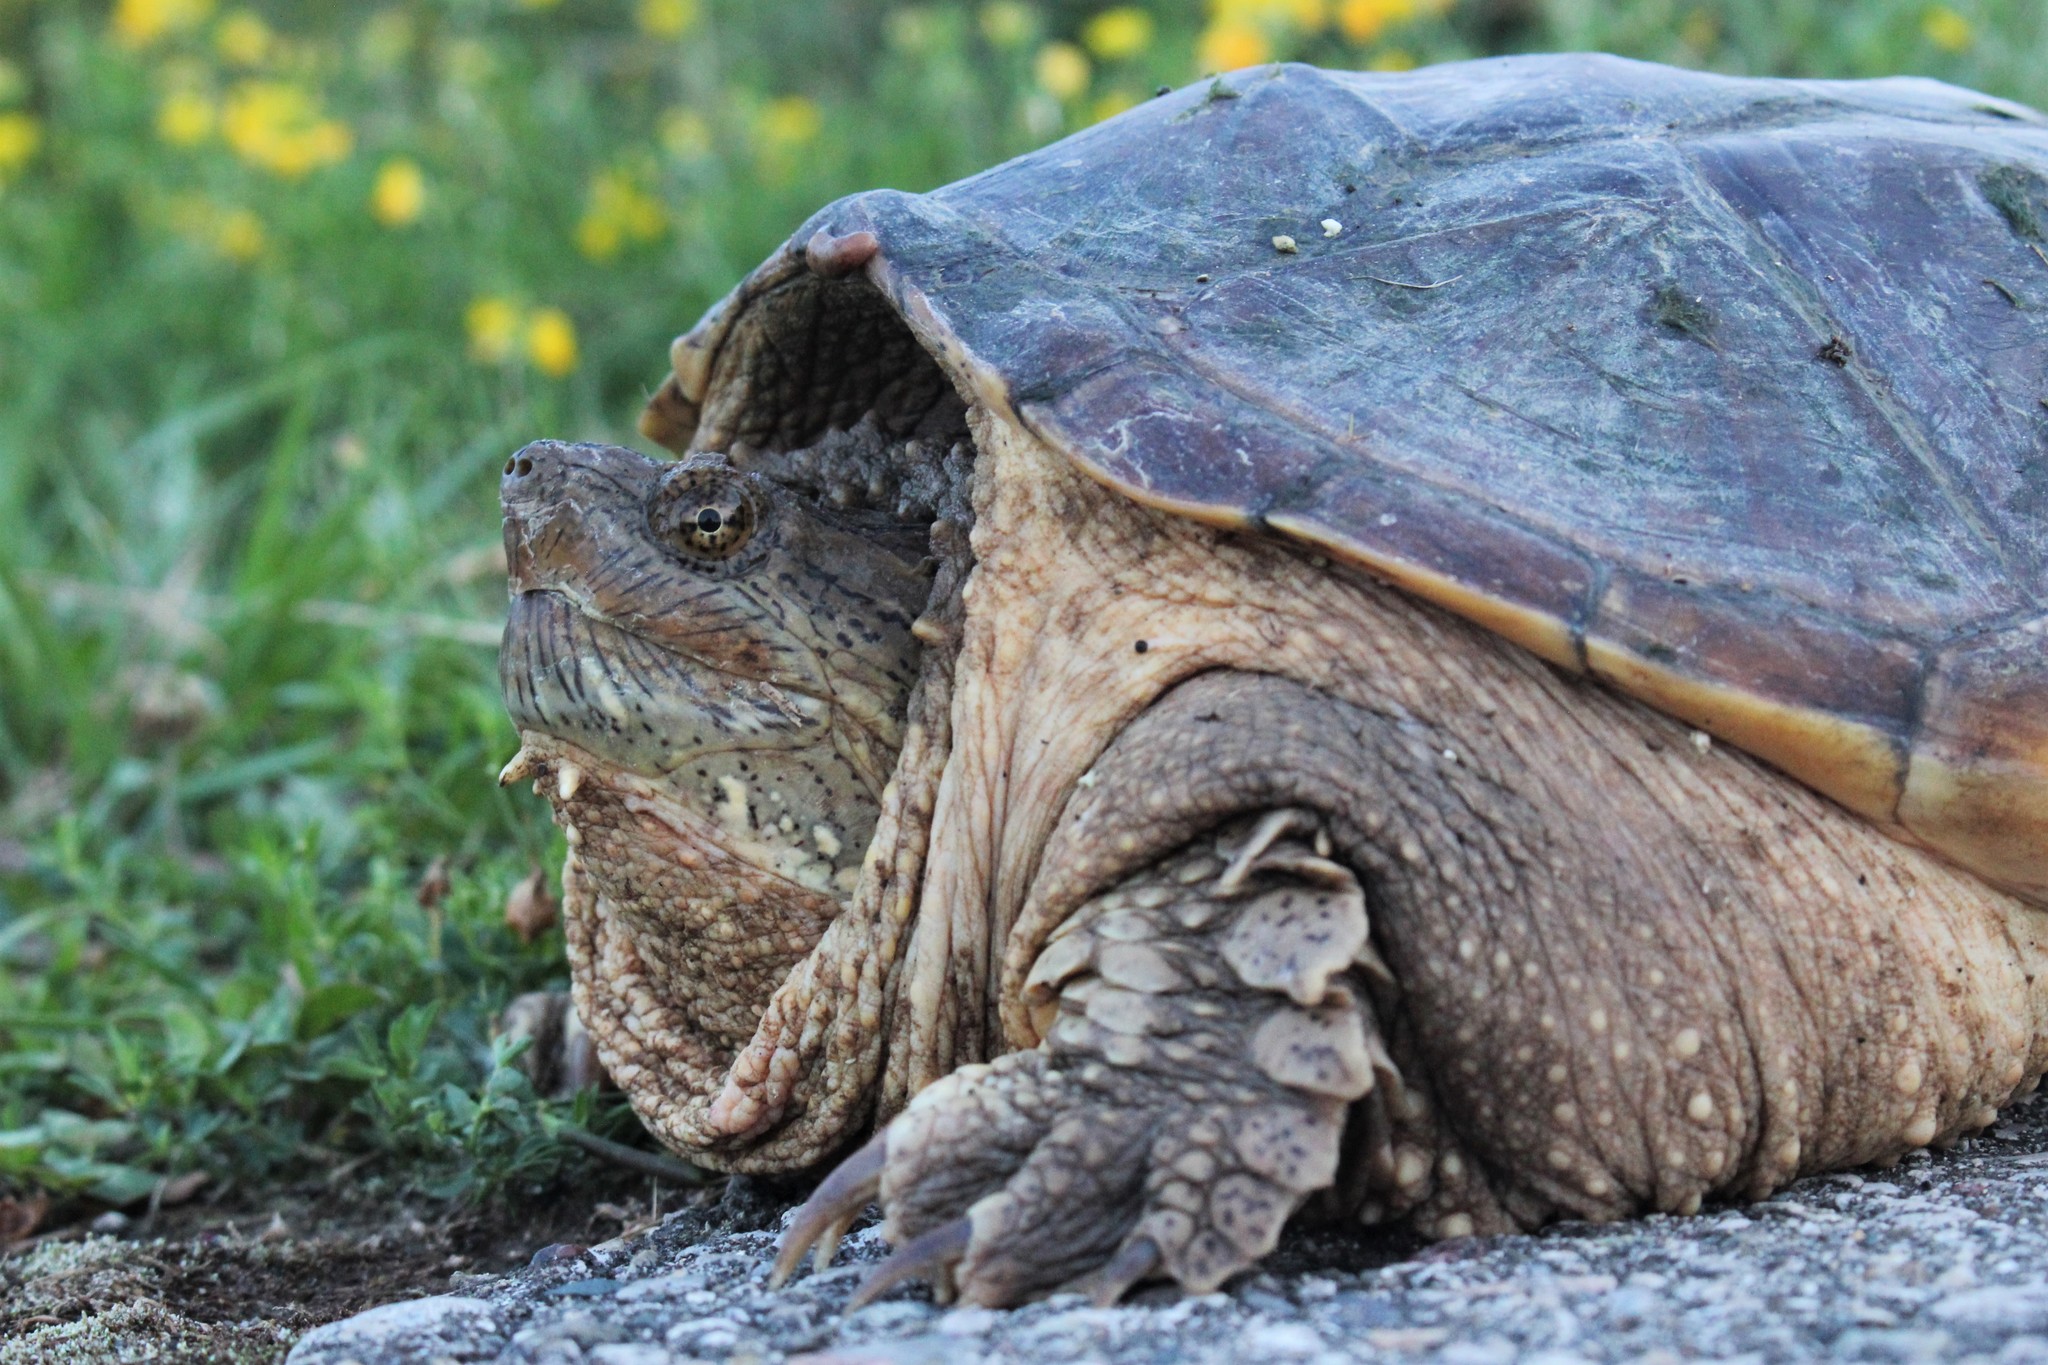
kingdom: Animalia
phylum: Chordata
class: Testudines
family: Chelydridae
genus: Chelydra
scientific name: Chelydra serpentina
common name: Common snapping turtle
